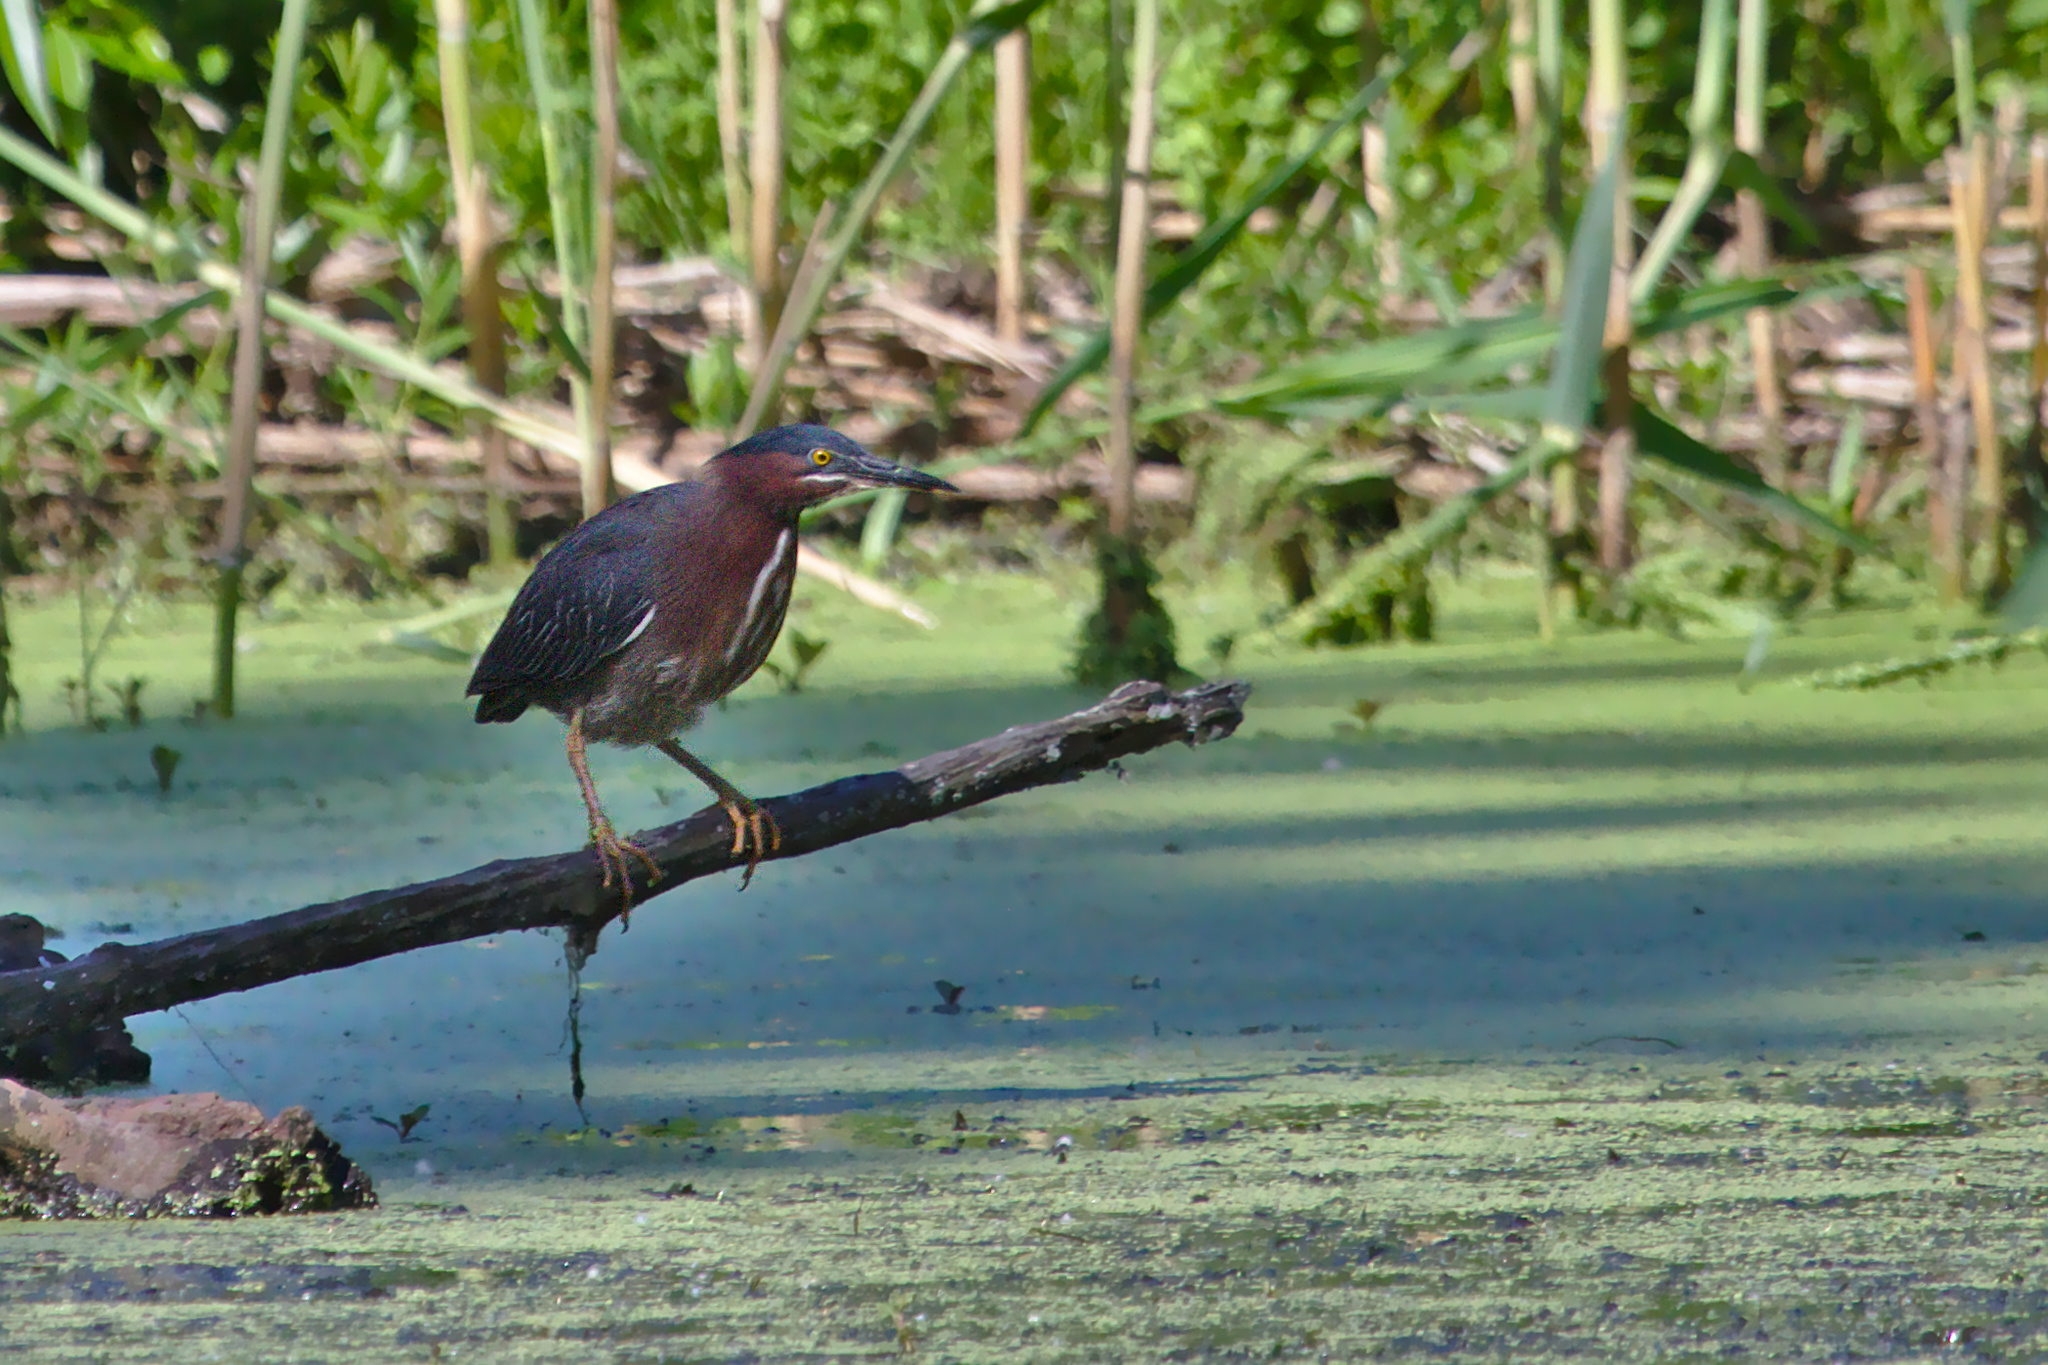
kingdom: Animalia
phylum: Chordata
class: Aves
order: Pelecaniformes
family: Ardeidae
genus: Butorides
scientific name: Butorides virescens
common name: Green heron
